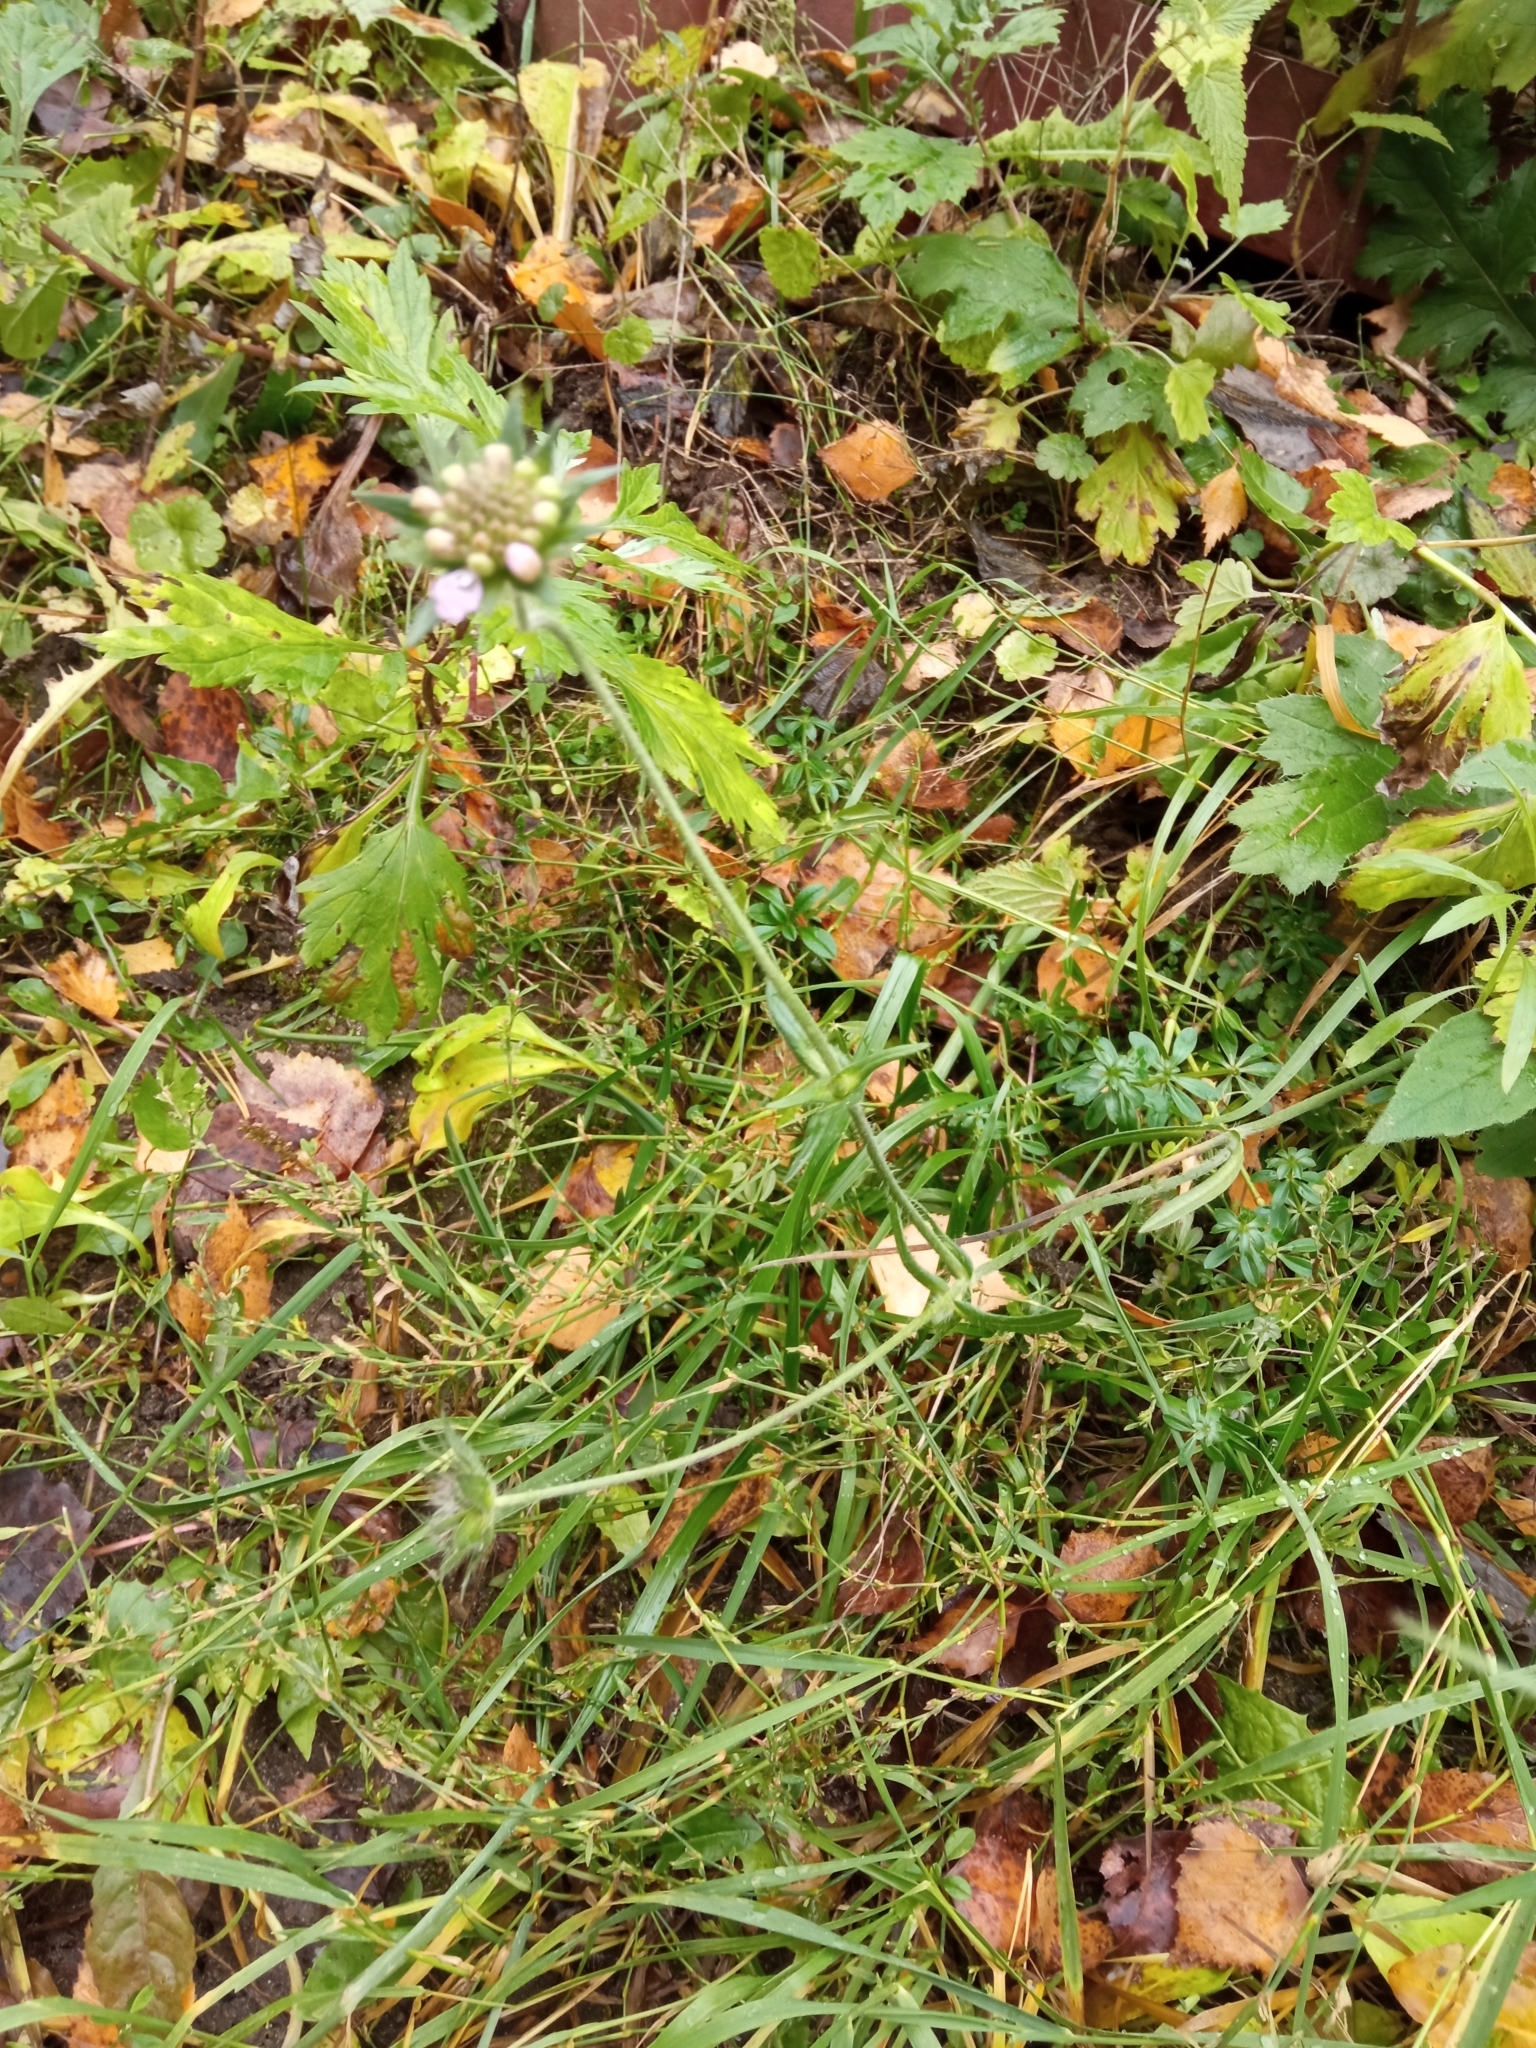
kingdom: Plantae
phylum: Tracheophyta
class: Magnoliopsida
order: Dipsacales
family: Caprifoliaceae
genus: Knautia
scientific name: Knautia arvensis
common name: Field scabiosa
